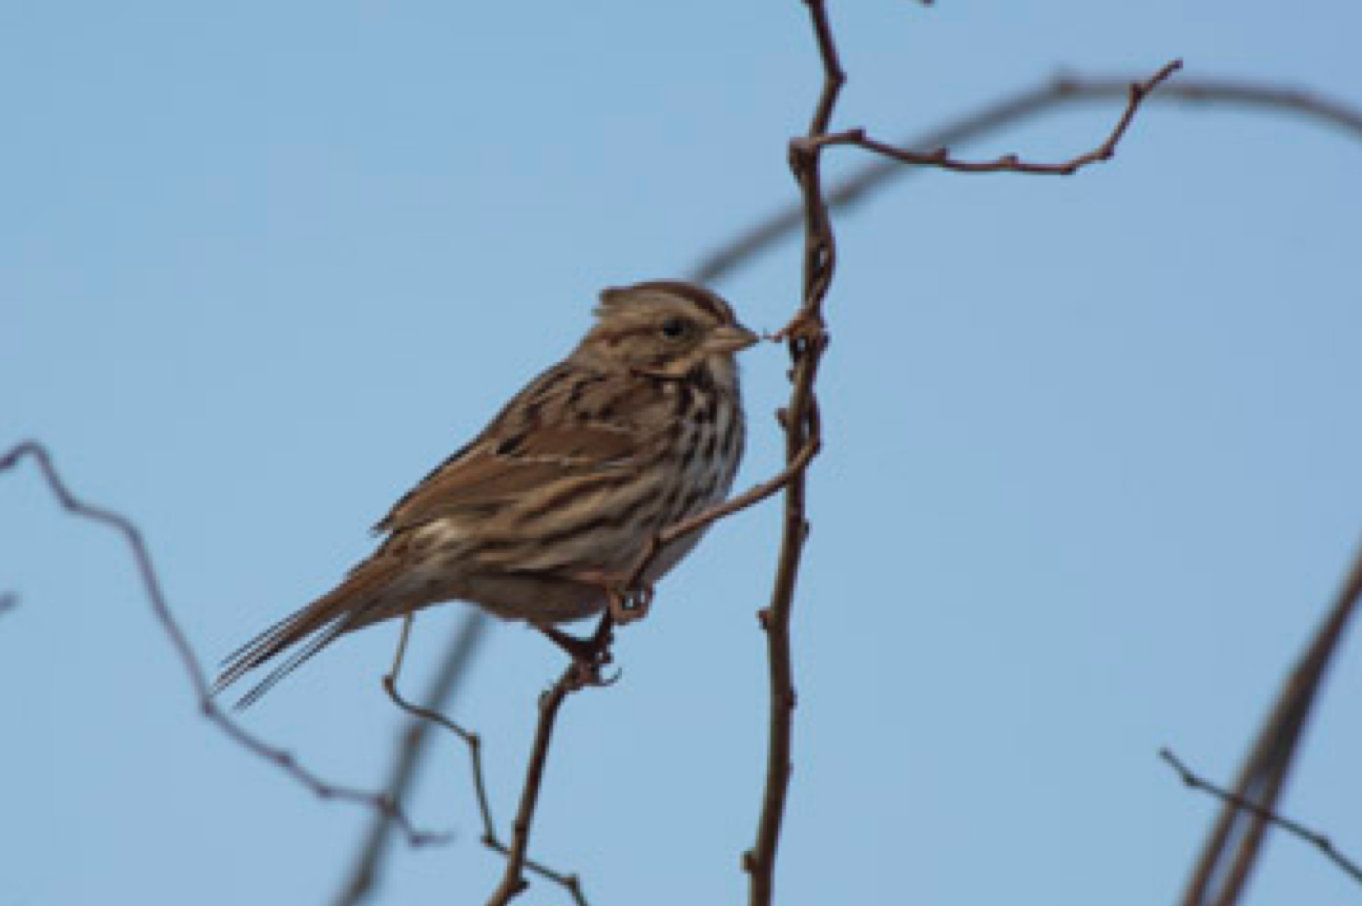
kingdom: Animalia
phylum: Chordata
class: Aves
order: Passeriformes
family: Passerellidae
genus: Melospiza
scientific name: Melospiza melodia
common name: Song sparrow
